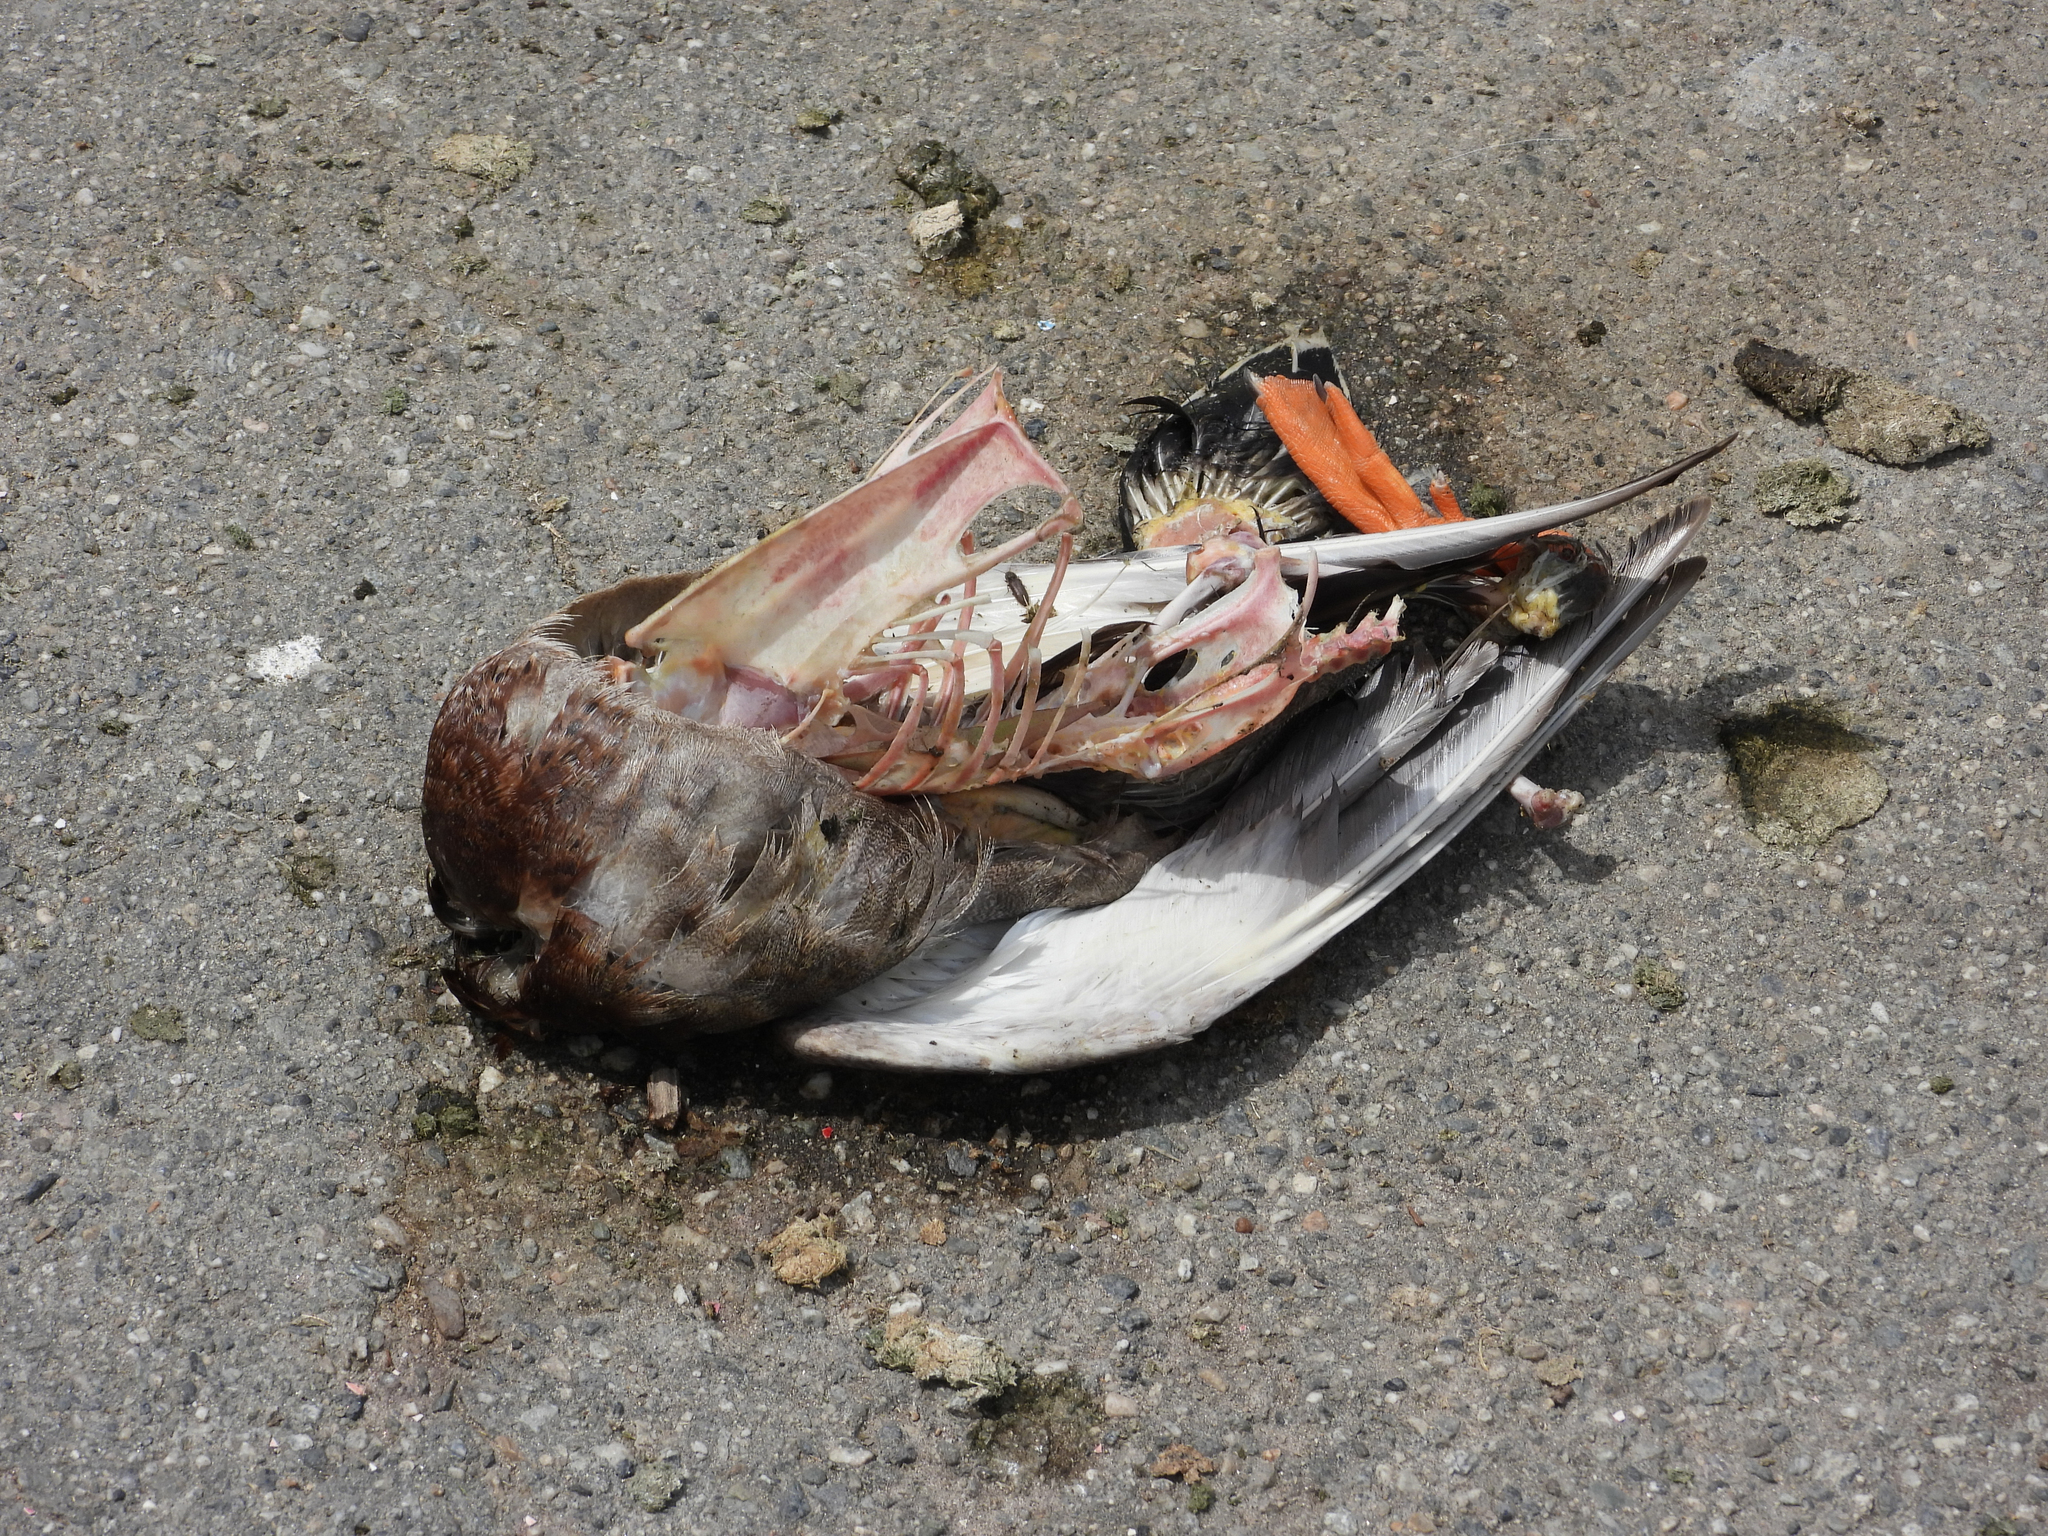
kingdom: Animalia
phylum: Chordata
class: Aves
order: Anseriformes
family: Anatidae
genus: Anas
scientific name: Anas platyrhynchos
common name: Mallard
